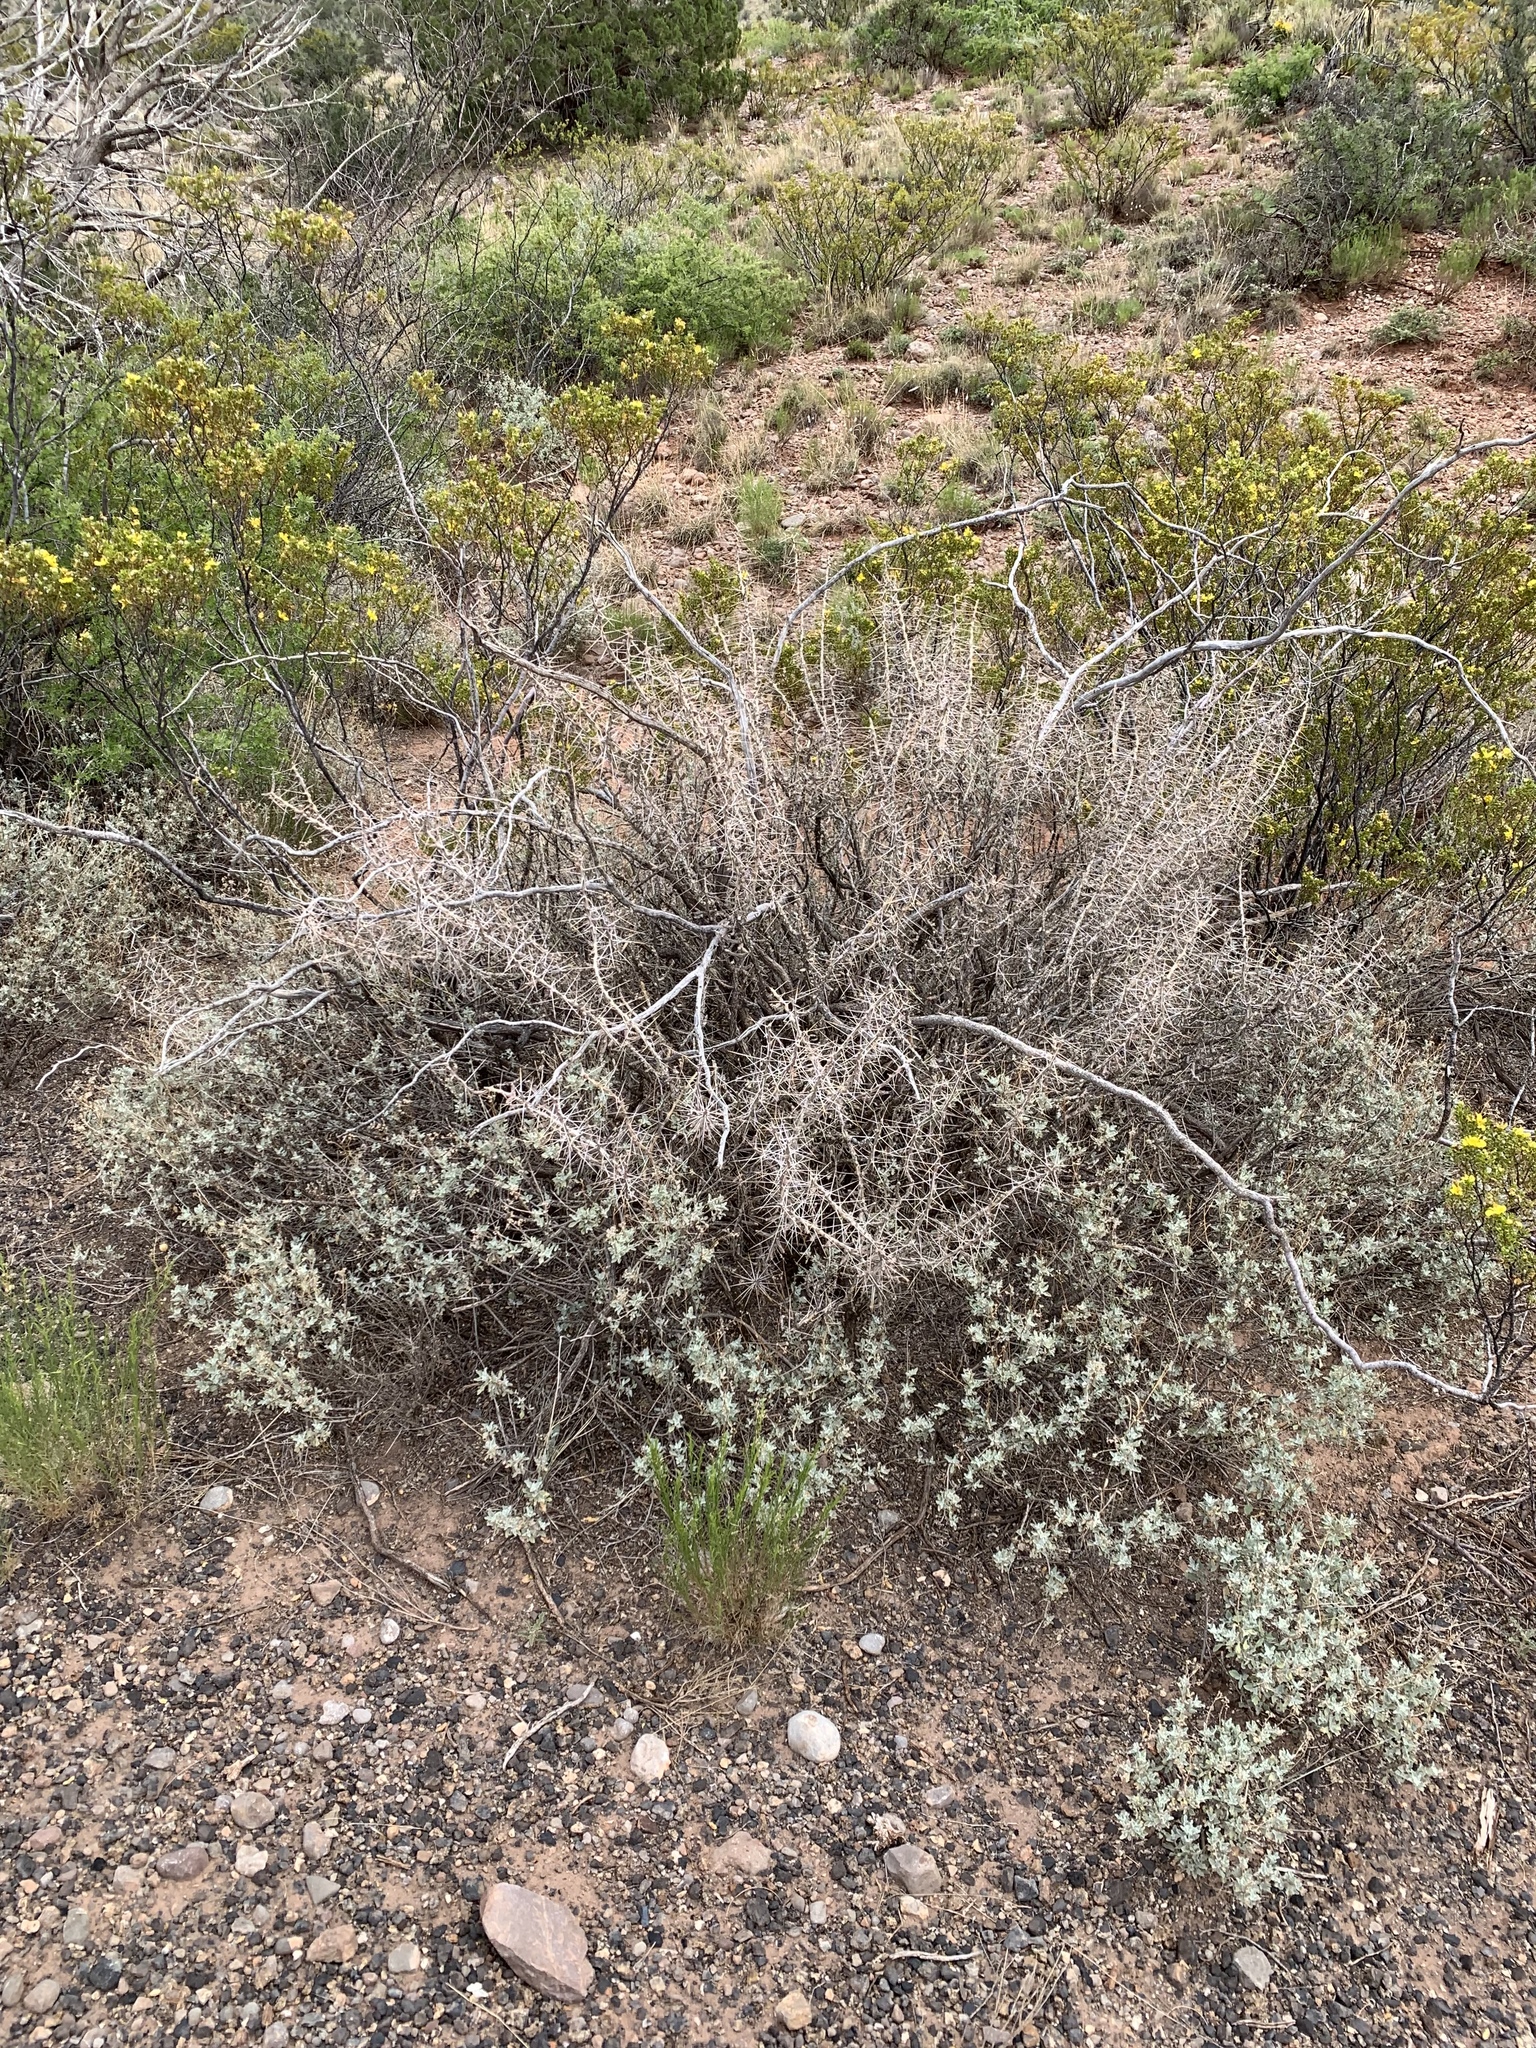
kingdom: Plantae
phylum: Tracheophyta
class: Magnoliopsida
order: Caryophyllales
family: Cactaceae
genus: Cylindropuntia
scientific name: Cylindropuntia leptocaulis
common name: Christmas cactus
